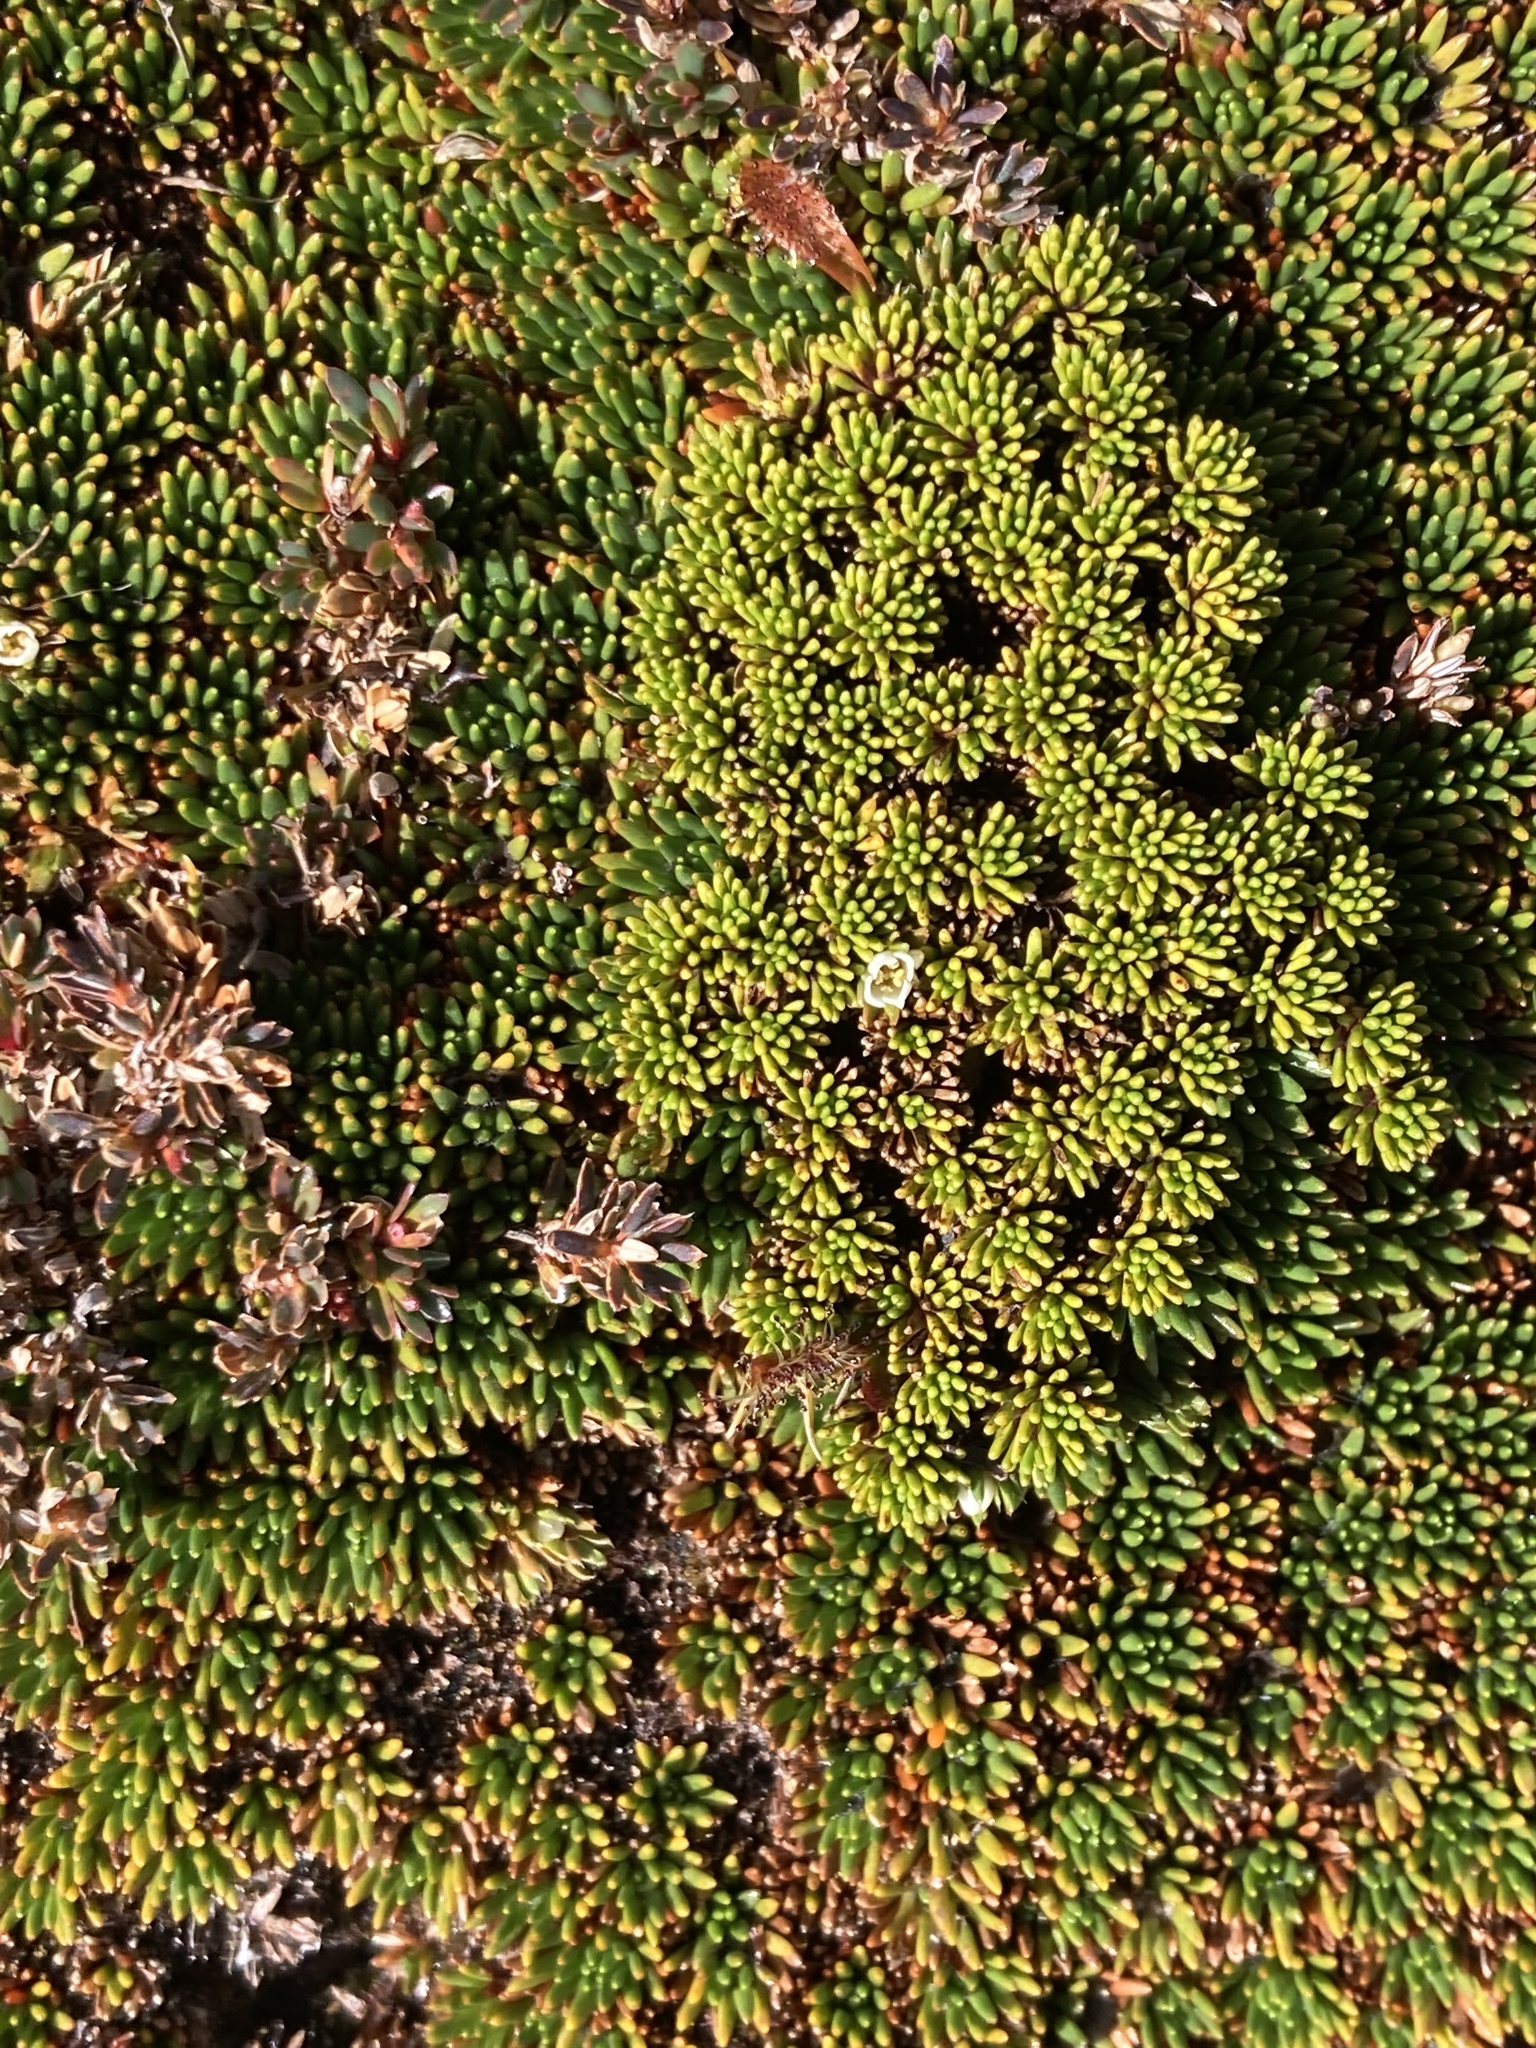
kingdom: Plantae
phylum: Tracheophyta
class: Magnoliopsida
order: Asterales
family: Stylidiaceae
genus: Phyllachne
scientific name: Phyllachne colensoi
